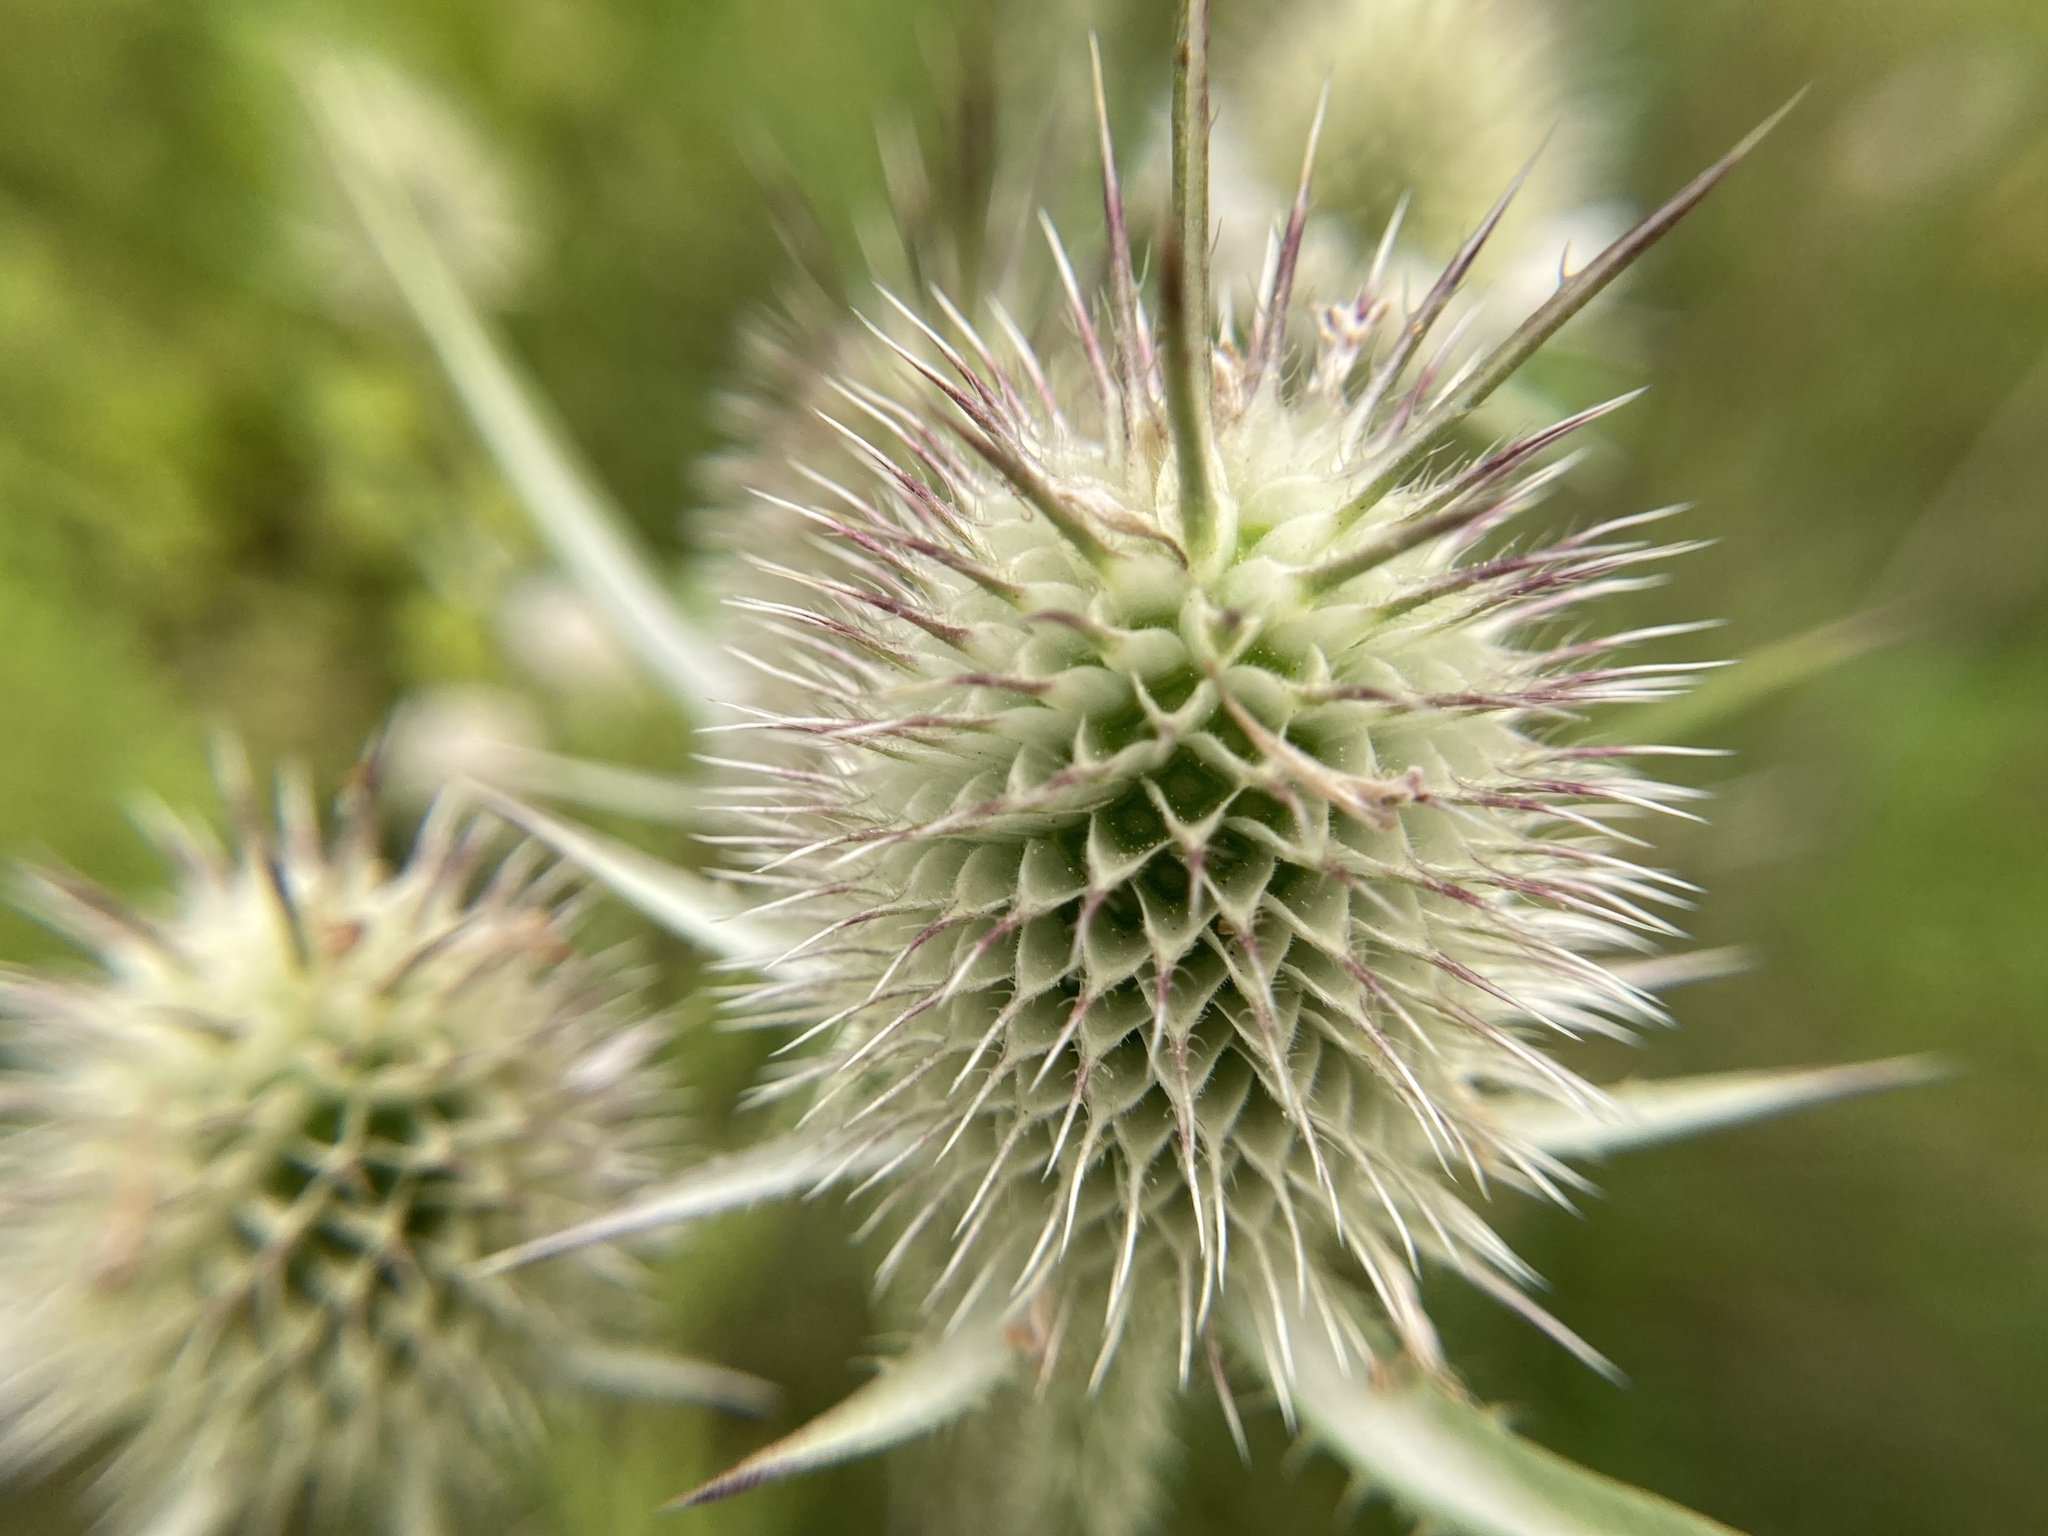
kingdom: Plantae
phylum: Tracheophyta
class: Magnoliopsida
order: Dipsacales
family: Caprifoliaceae
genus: Dipsacus
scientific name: Dipsacus laciniatus
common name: Cut-leaved teasel
